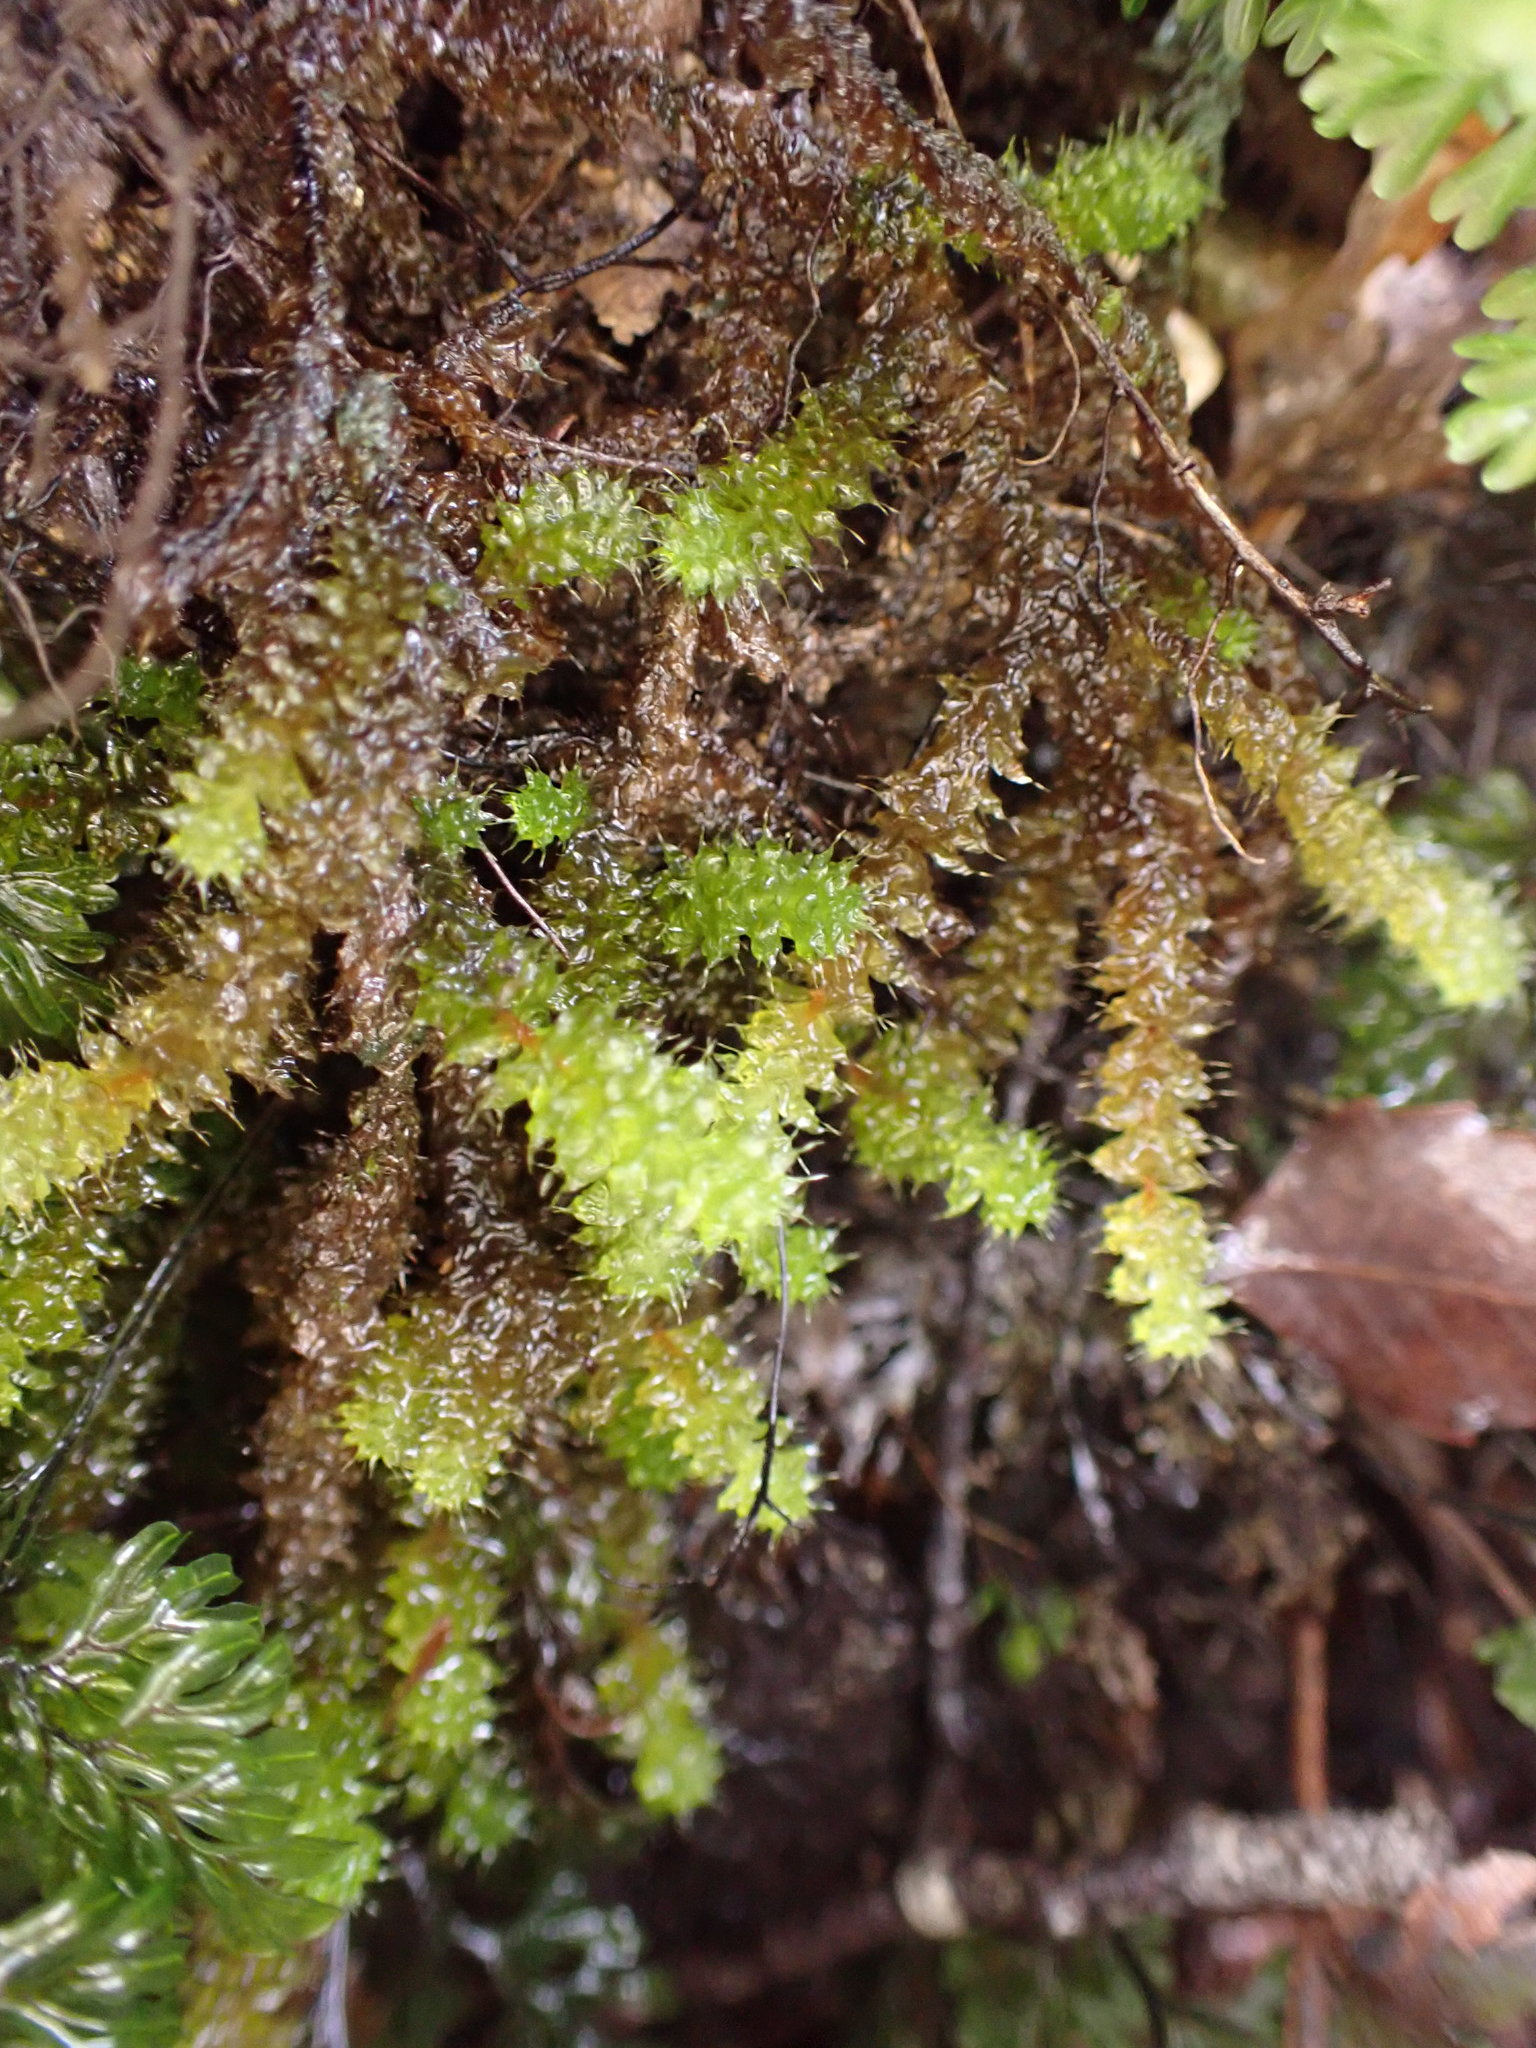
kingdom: Plantae
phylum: Bryophyta
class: Bryopsida
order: Ptychomniales
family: Ptychomniaceae
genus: Ptychomnion
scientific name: Ptychomnion aciculare
